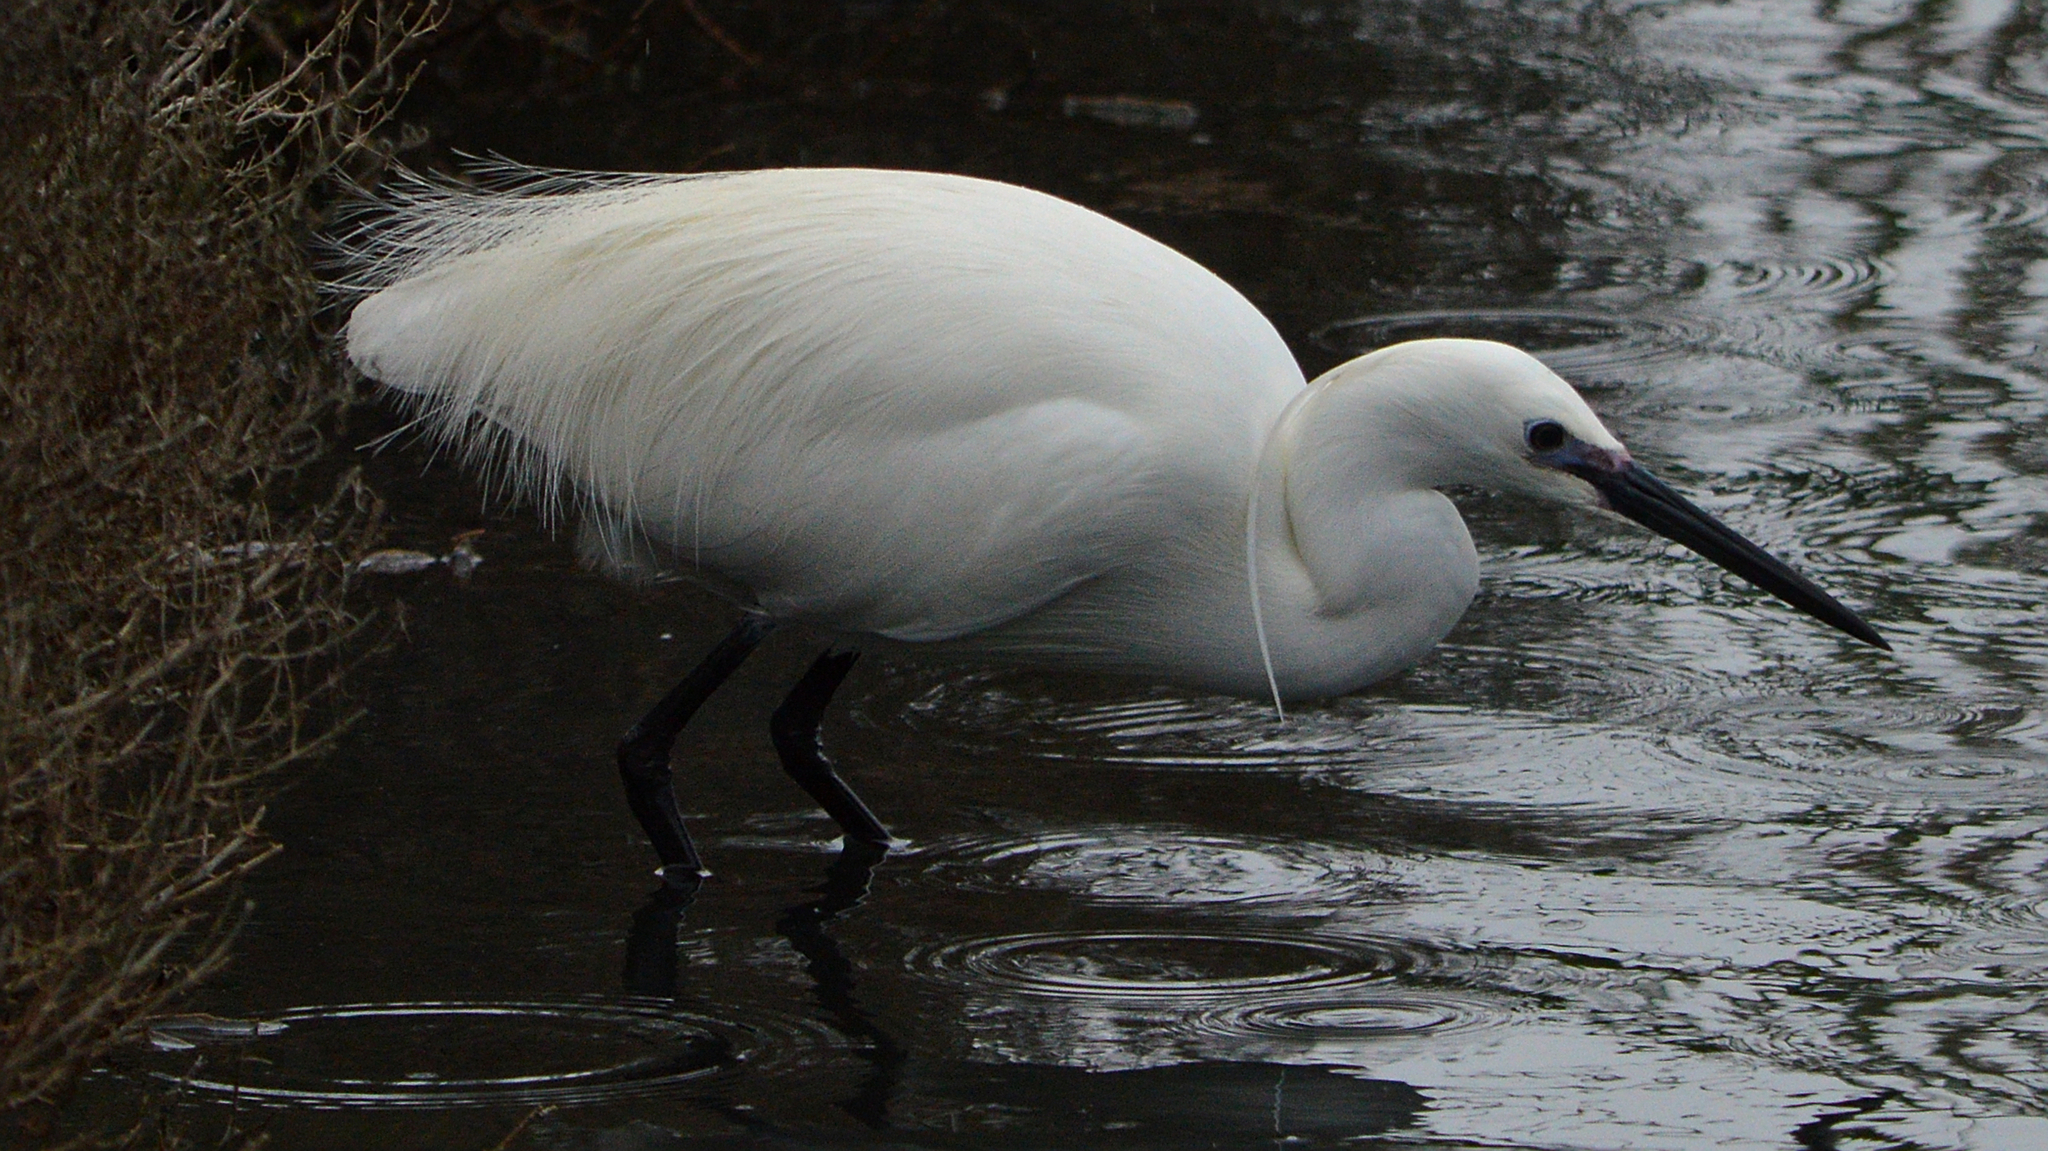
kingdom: Animalia
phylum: Chordata
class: Aves
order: Pelecaniformes
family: Ardeidae
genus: Egretta
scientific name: Egretta garzetta
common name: Little egret
